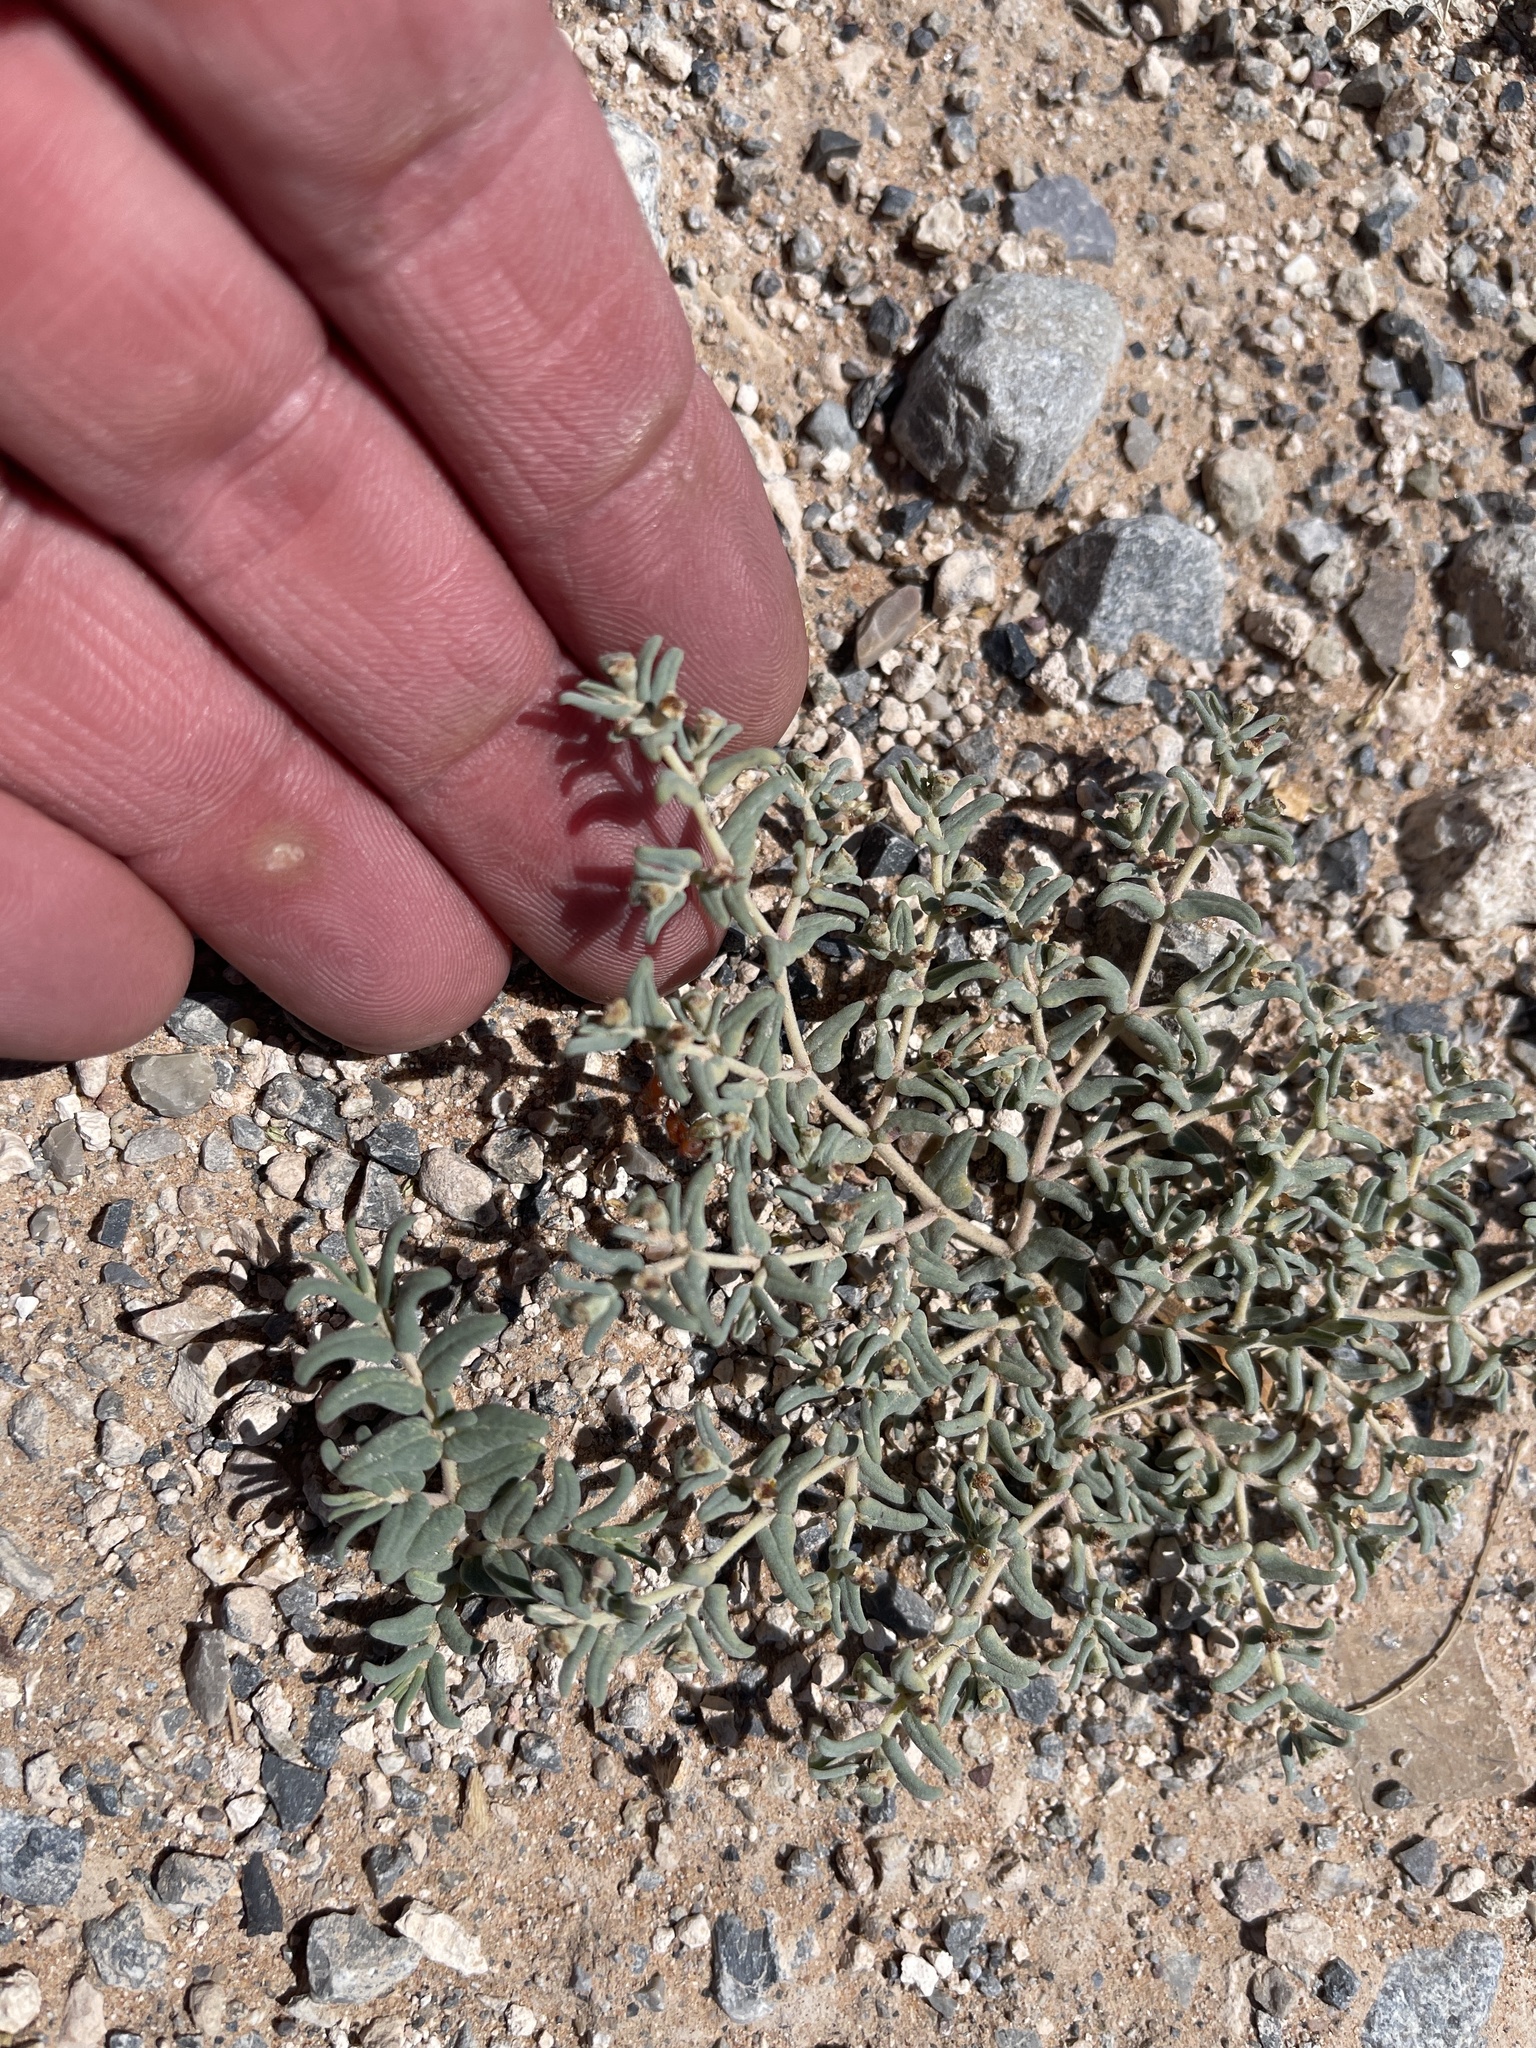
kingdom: Plantae
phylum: Tracheophyta
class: Magnoliopsida
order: Malpighiales
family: Euphorbiaceae
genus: Euphorbia
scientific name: Euphorbia lata
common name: Hoary euphorbia
